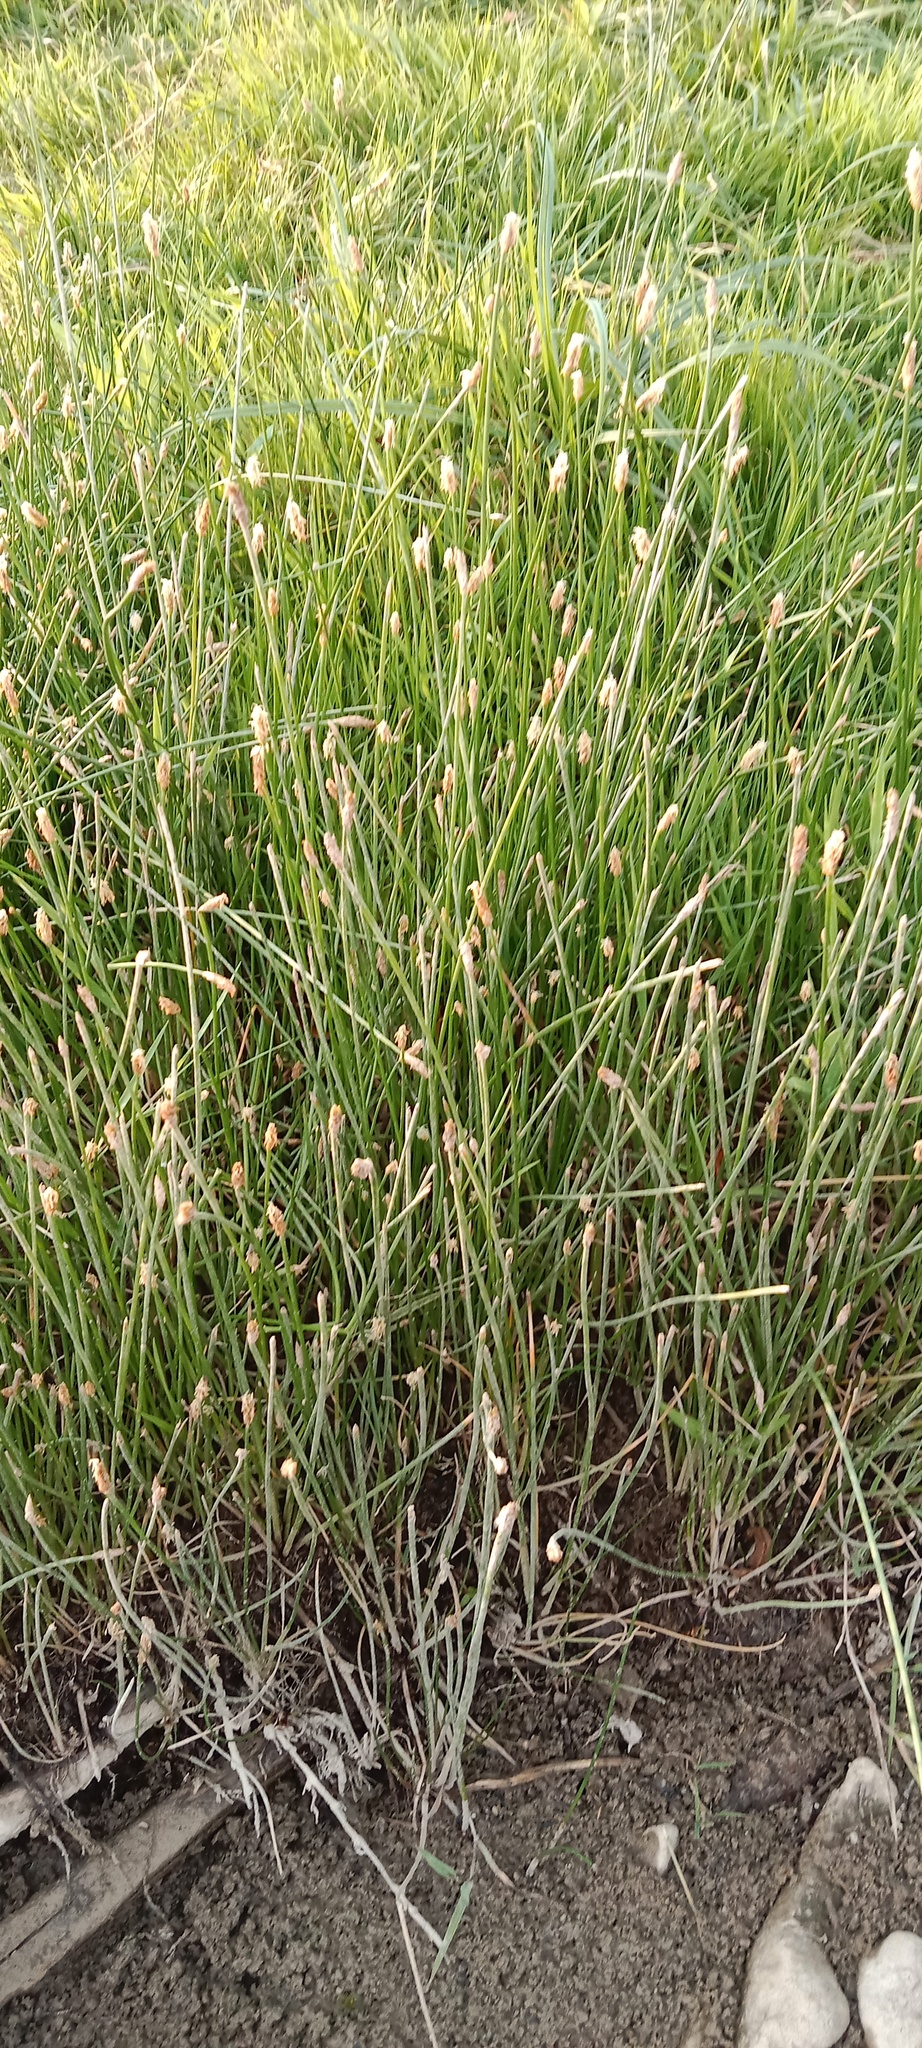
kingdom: Plantae
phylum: Tracheophyta
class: Liliopsida
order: Poales
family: Cyperaceae
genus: Eleocharis
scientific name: Eleocharis palustris
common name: Common spike-rush
